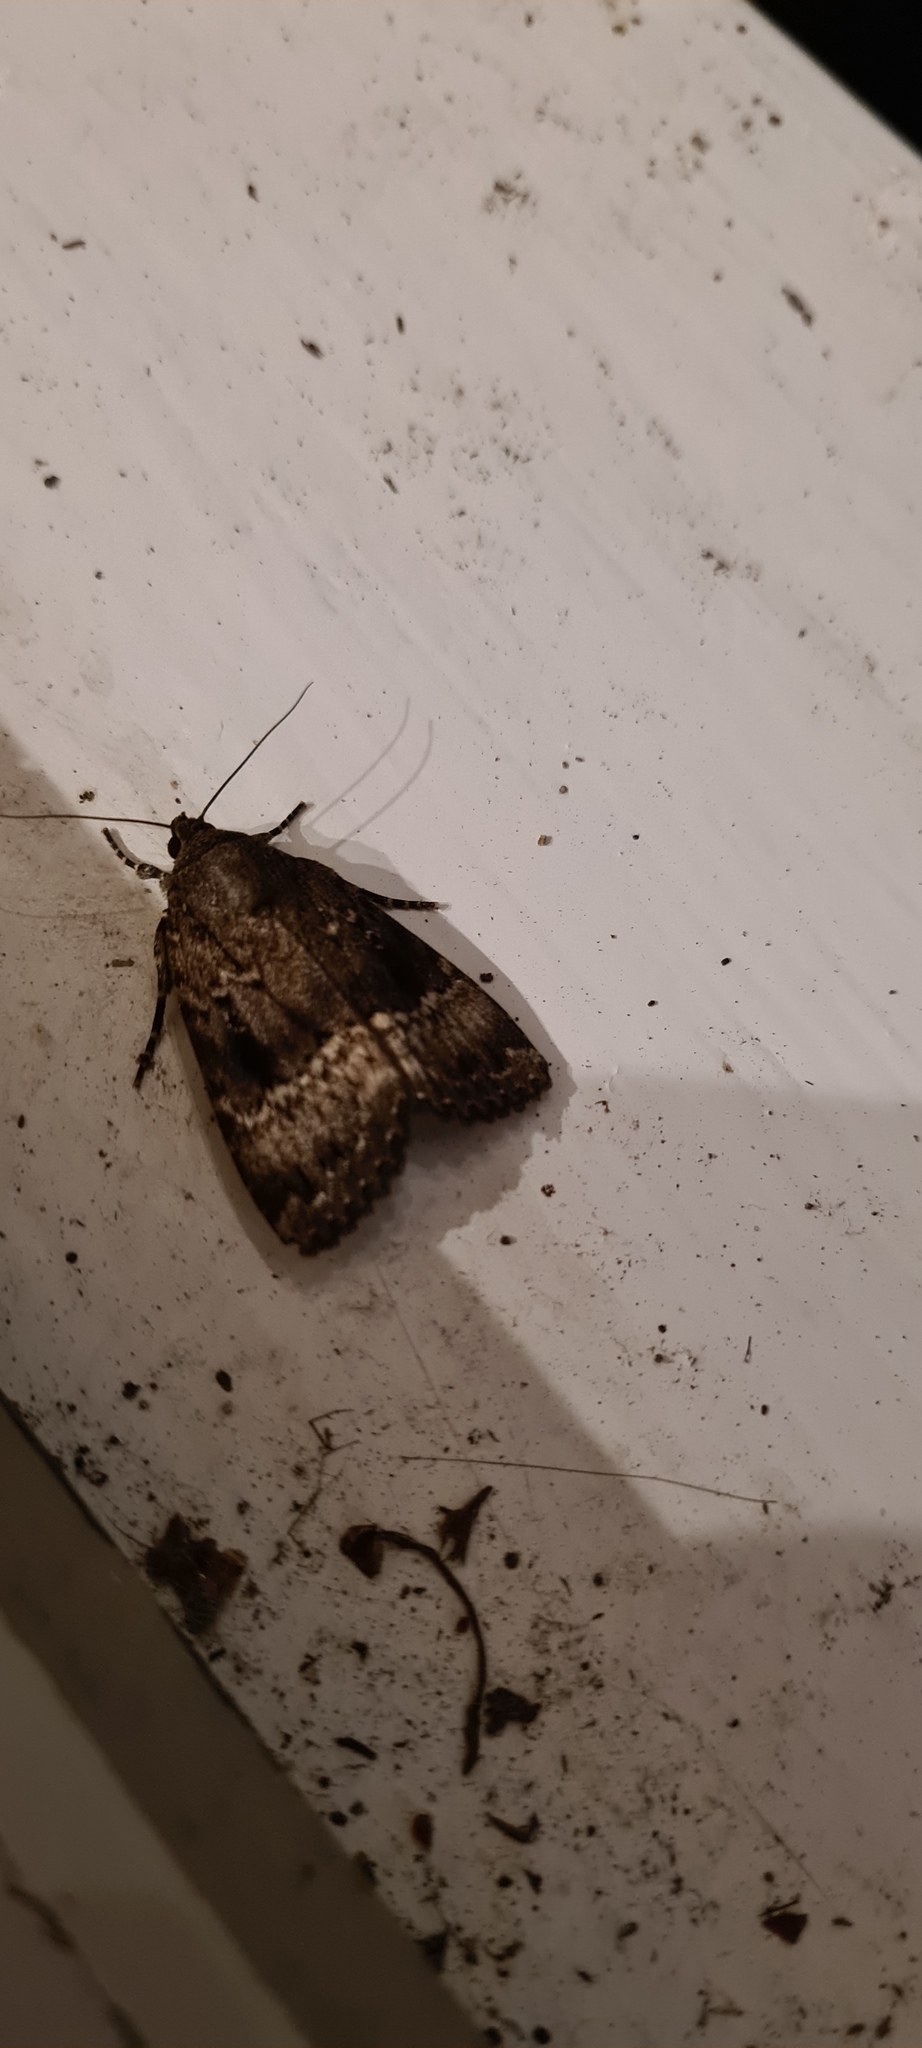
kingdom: Animalia
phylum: Arthropoda
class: Insecta
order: Lepidoptera
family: Noctuidae
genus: Amphipyra
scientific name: Amphipyra pyramidea
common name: Copper underwing
